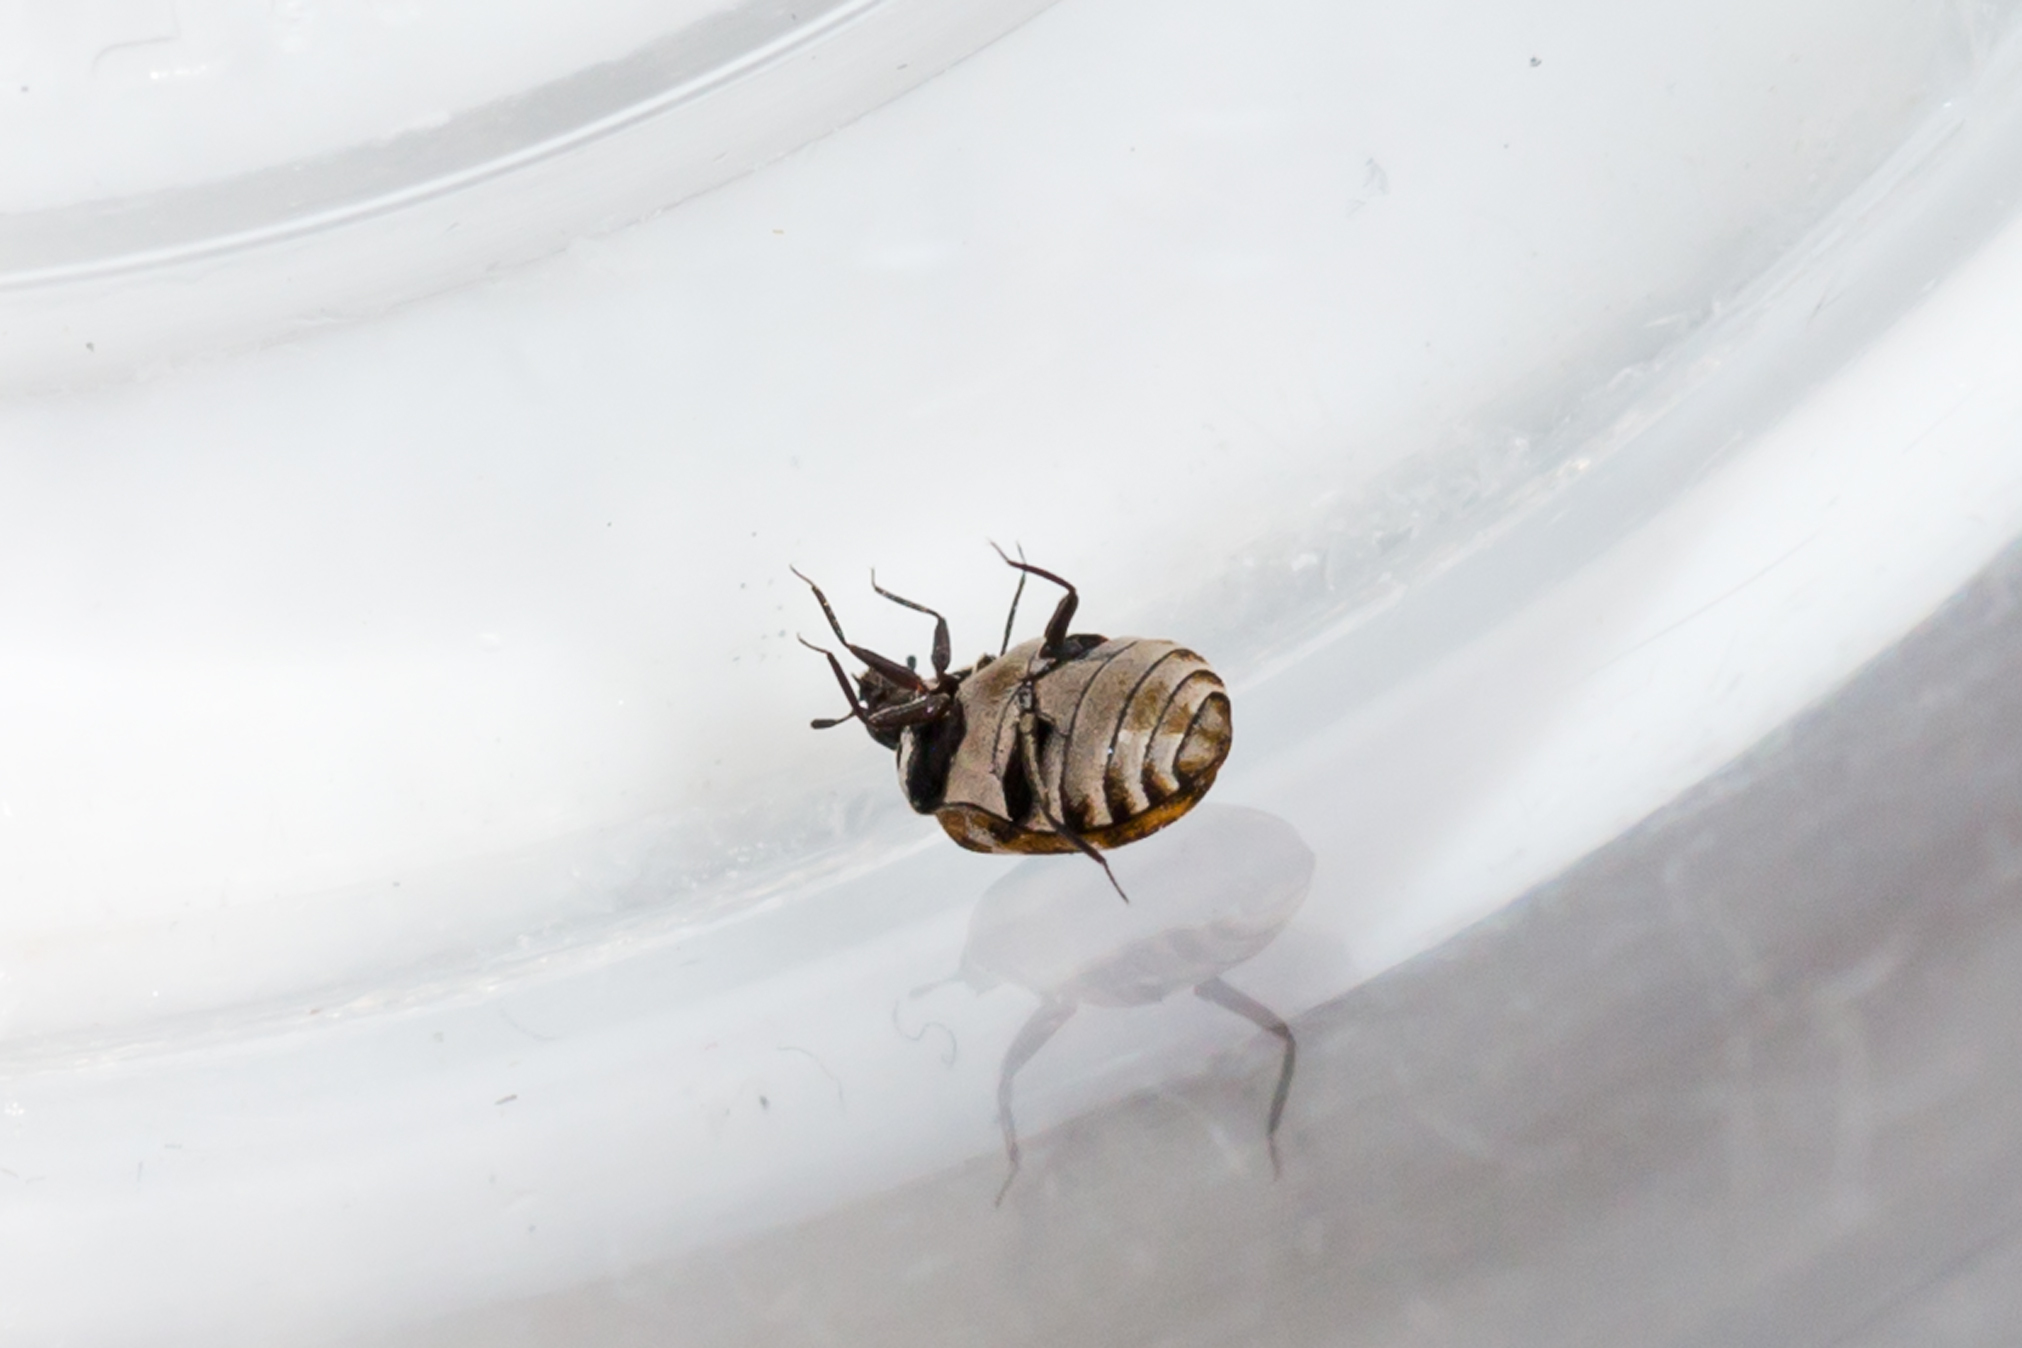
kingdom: Animalia
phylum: Arthropoda
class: Insecta
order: Coleoptera
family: Dermestidae
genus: Anthrenus
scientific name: Anthrenus verbasci
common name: Varied carpet beetle
